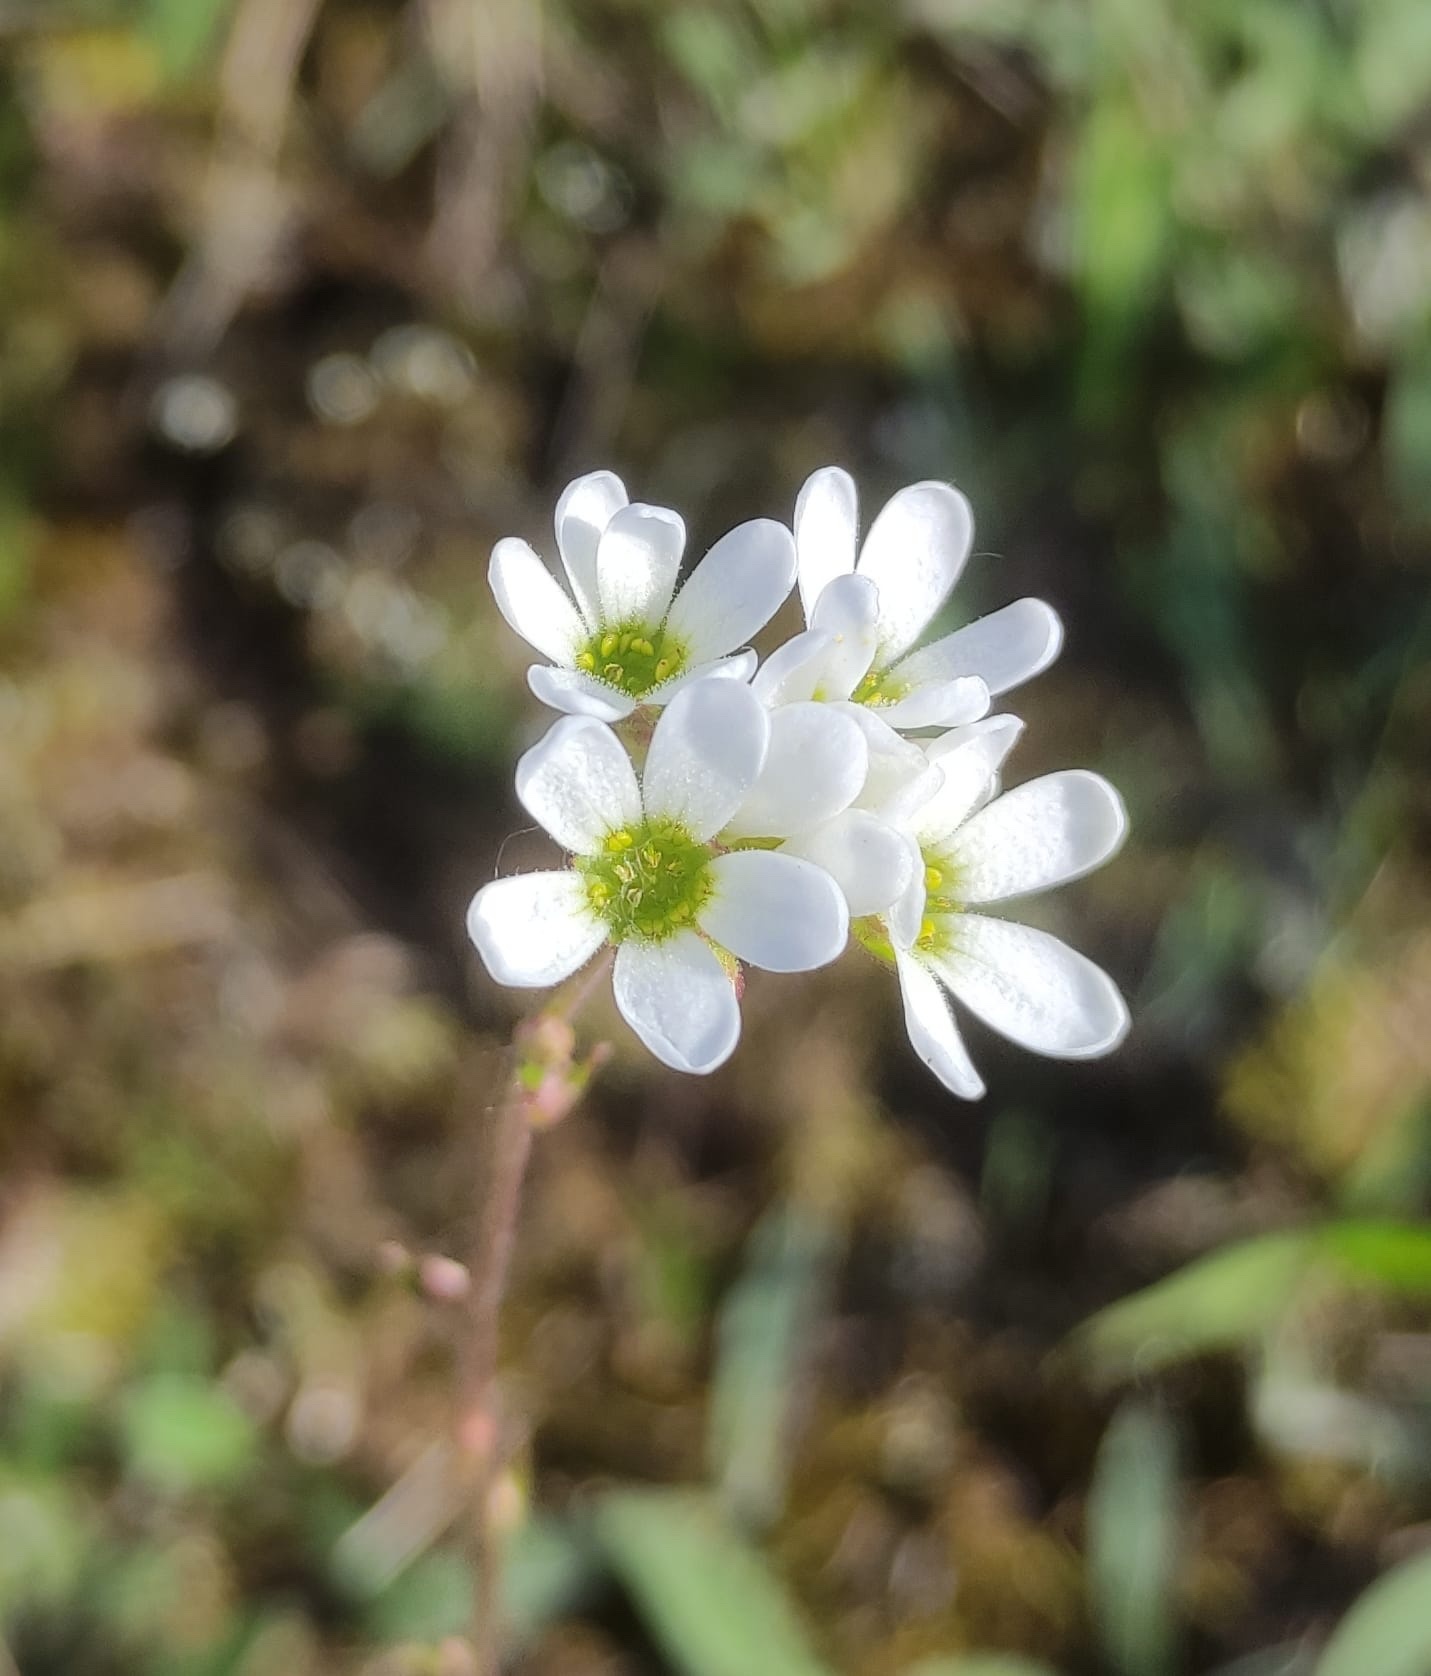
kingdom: Plantae
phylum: Tracheophyta
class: Magnoliopsida
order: Saxifragales
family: Saxifragaceae
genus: Saxifraga
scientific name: Saxifraga bulbifera
